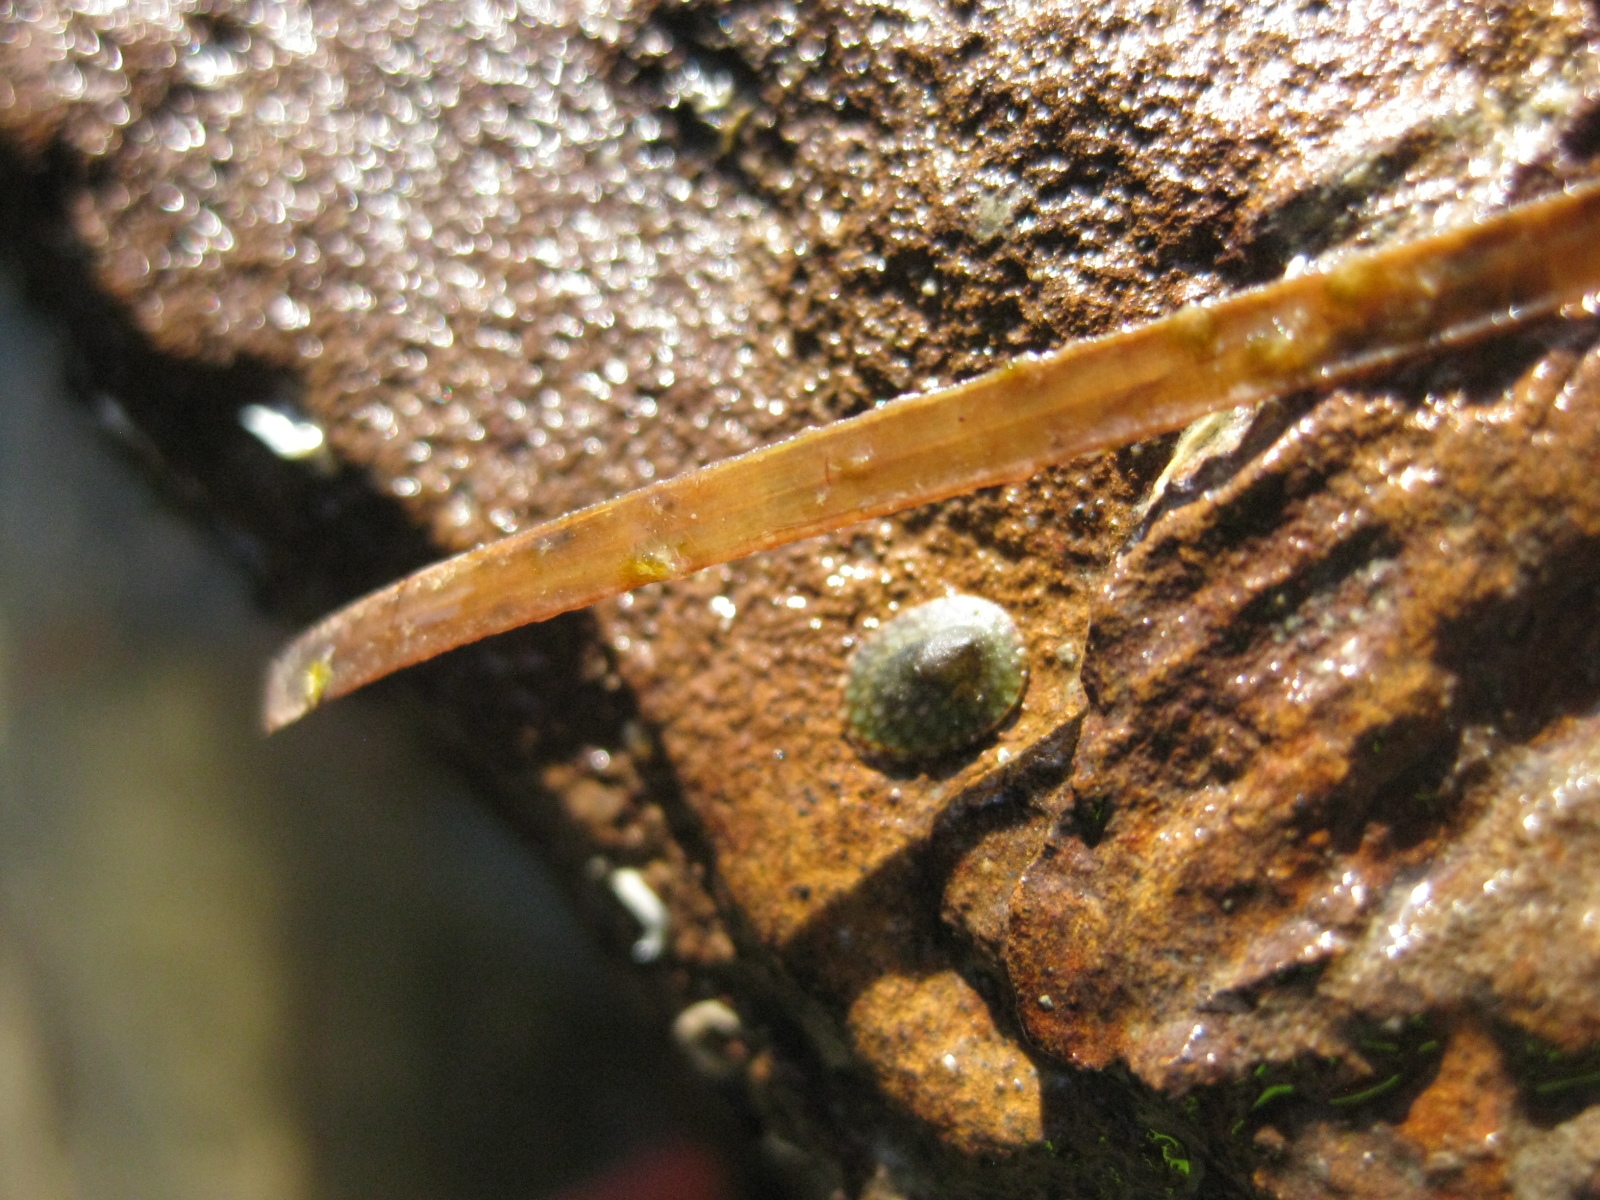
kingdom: Animalia
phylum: Mollusca
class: Gastropoda
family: Lottiidae
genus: Notoacmea
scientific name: Notoacmea elongata
